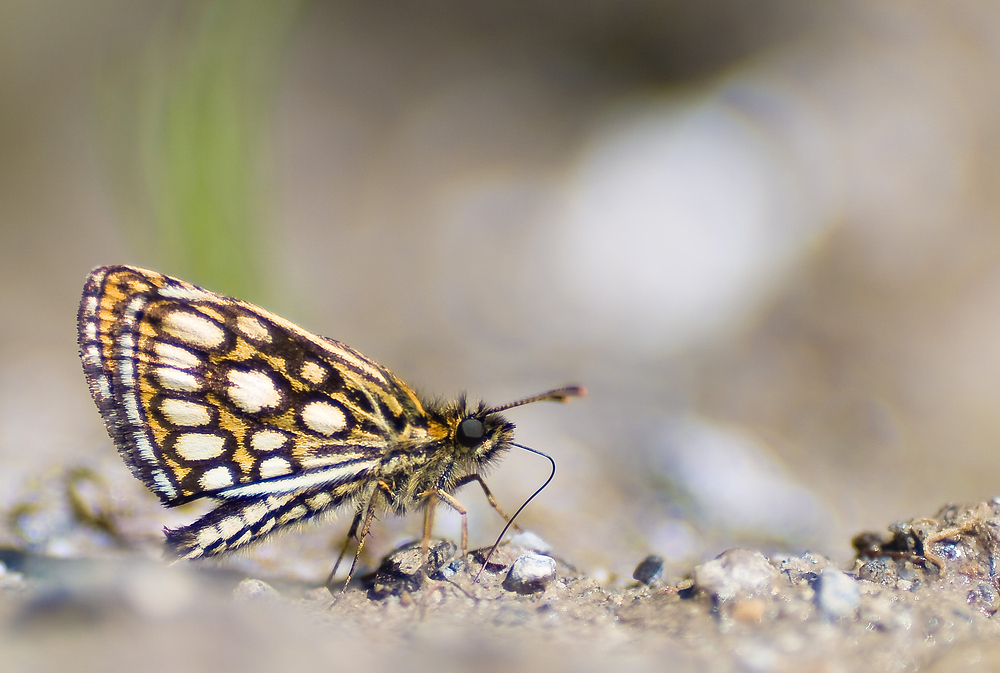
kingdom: Animalia
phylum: Arthropoda
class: Insecta
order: Lepidoptera
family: Hesperiidae
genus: Heteropterus
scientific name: Heteropterus morpheus
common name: Large chequered skipper
